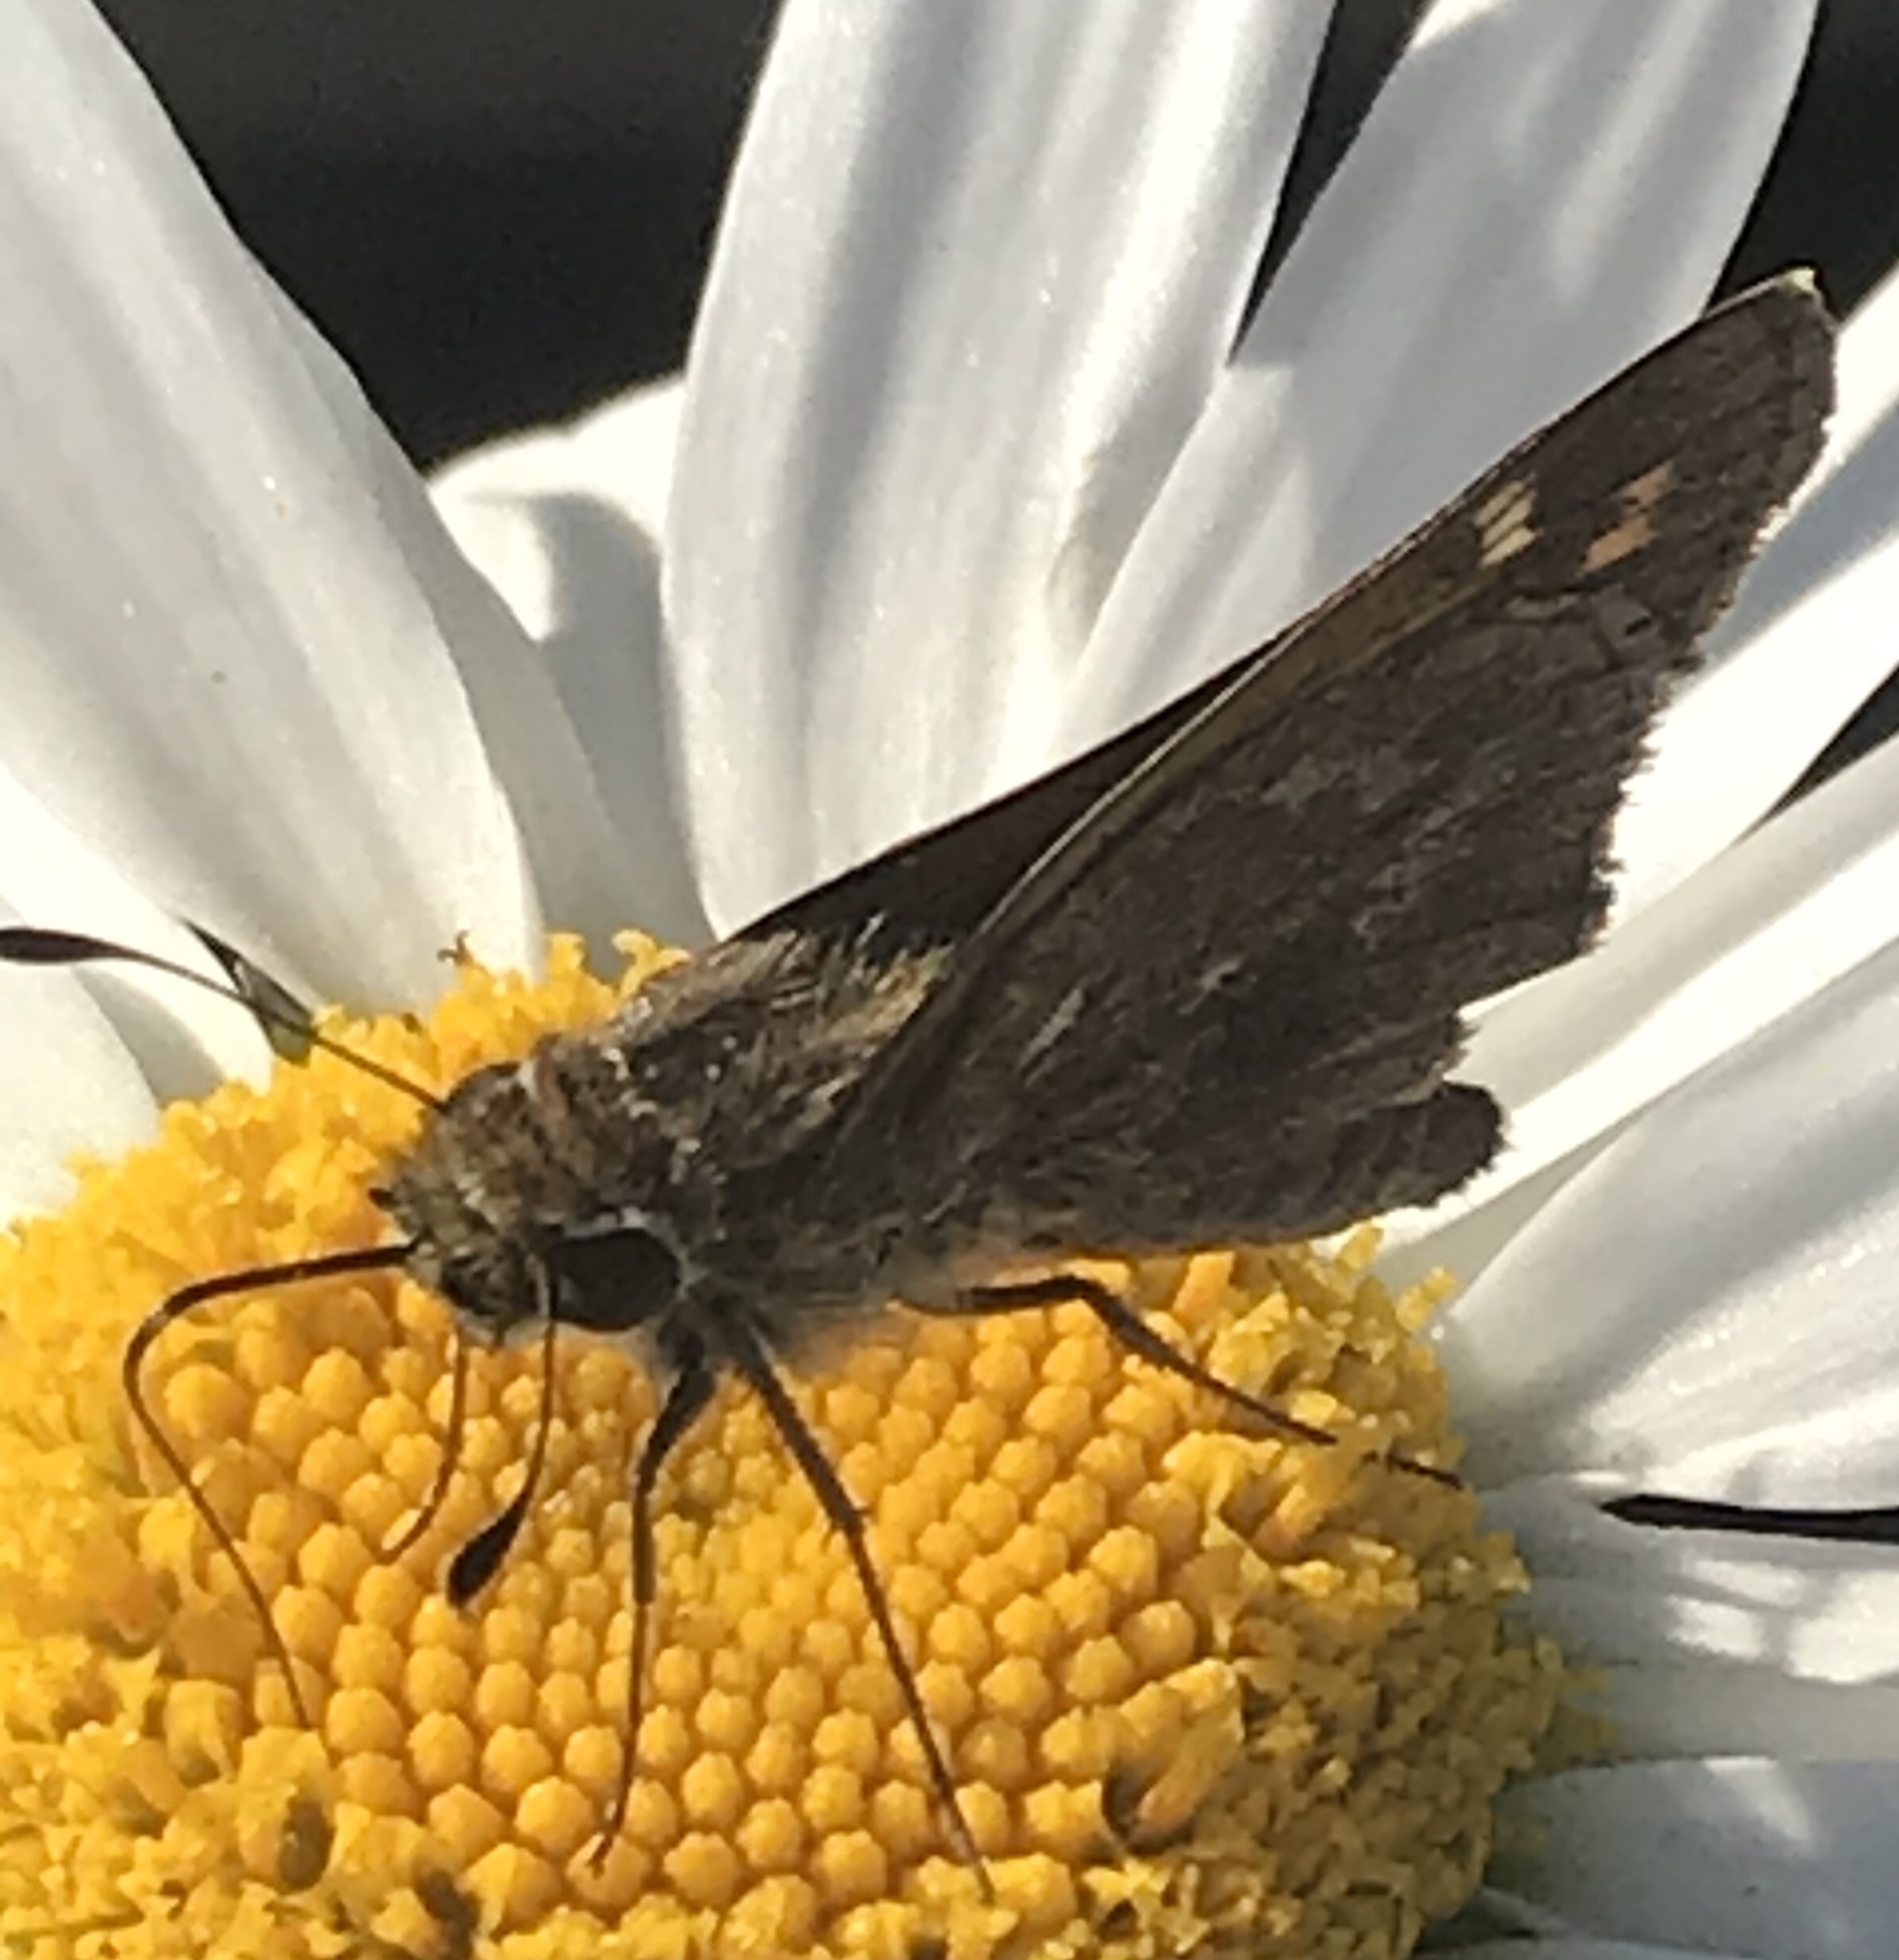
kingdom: Animalia
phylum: Arthropoda
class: Insecta
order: Lepidoptera
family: Hesperiidae
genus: Atalopedes
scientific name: Atalopedes
